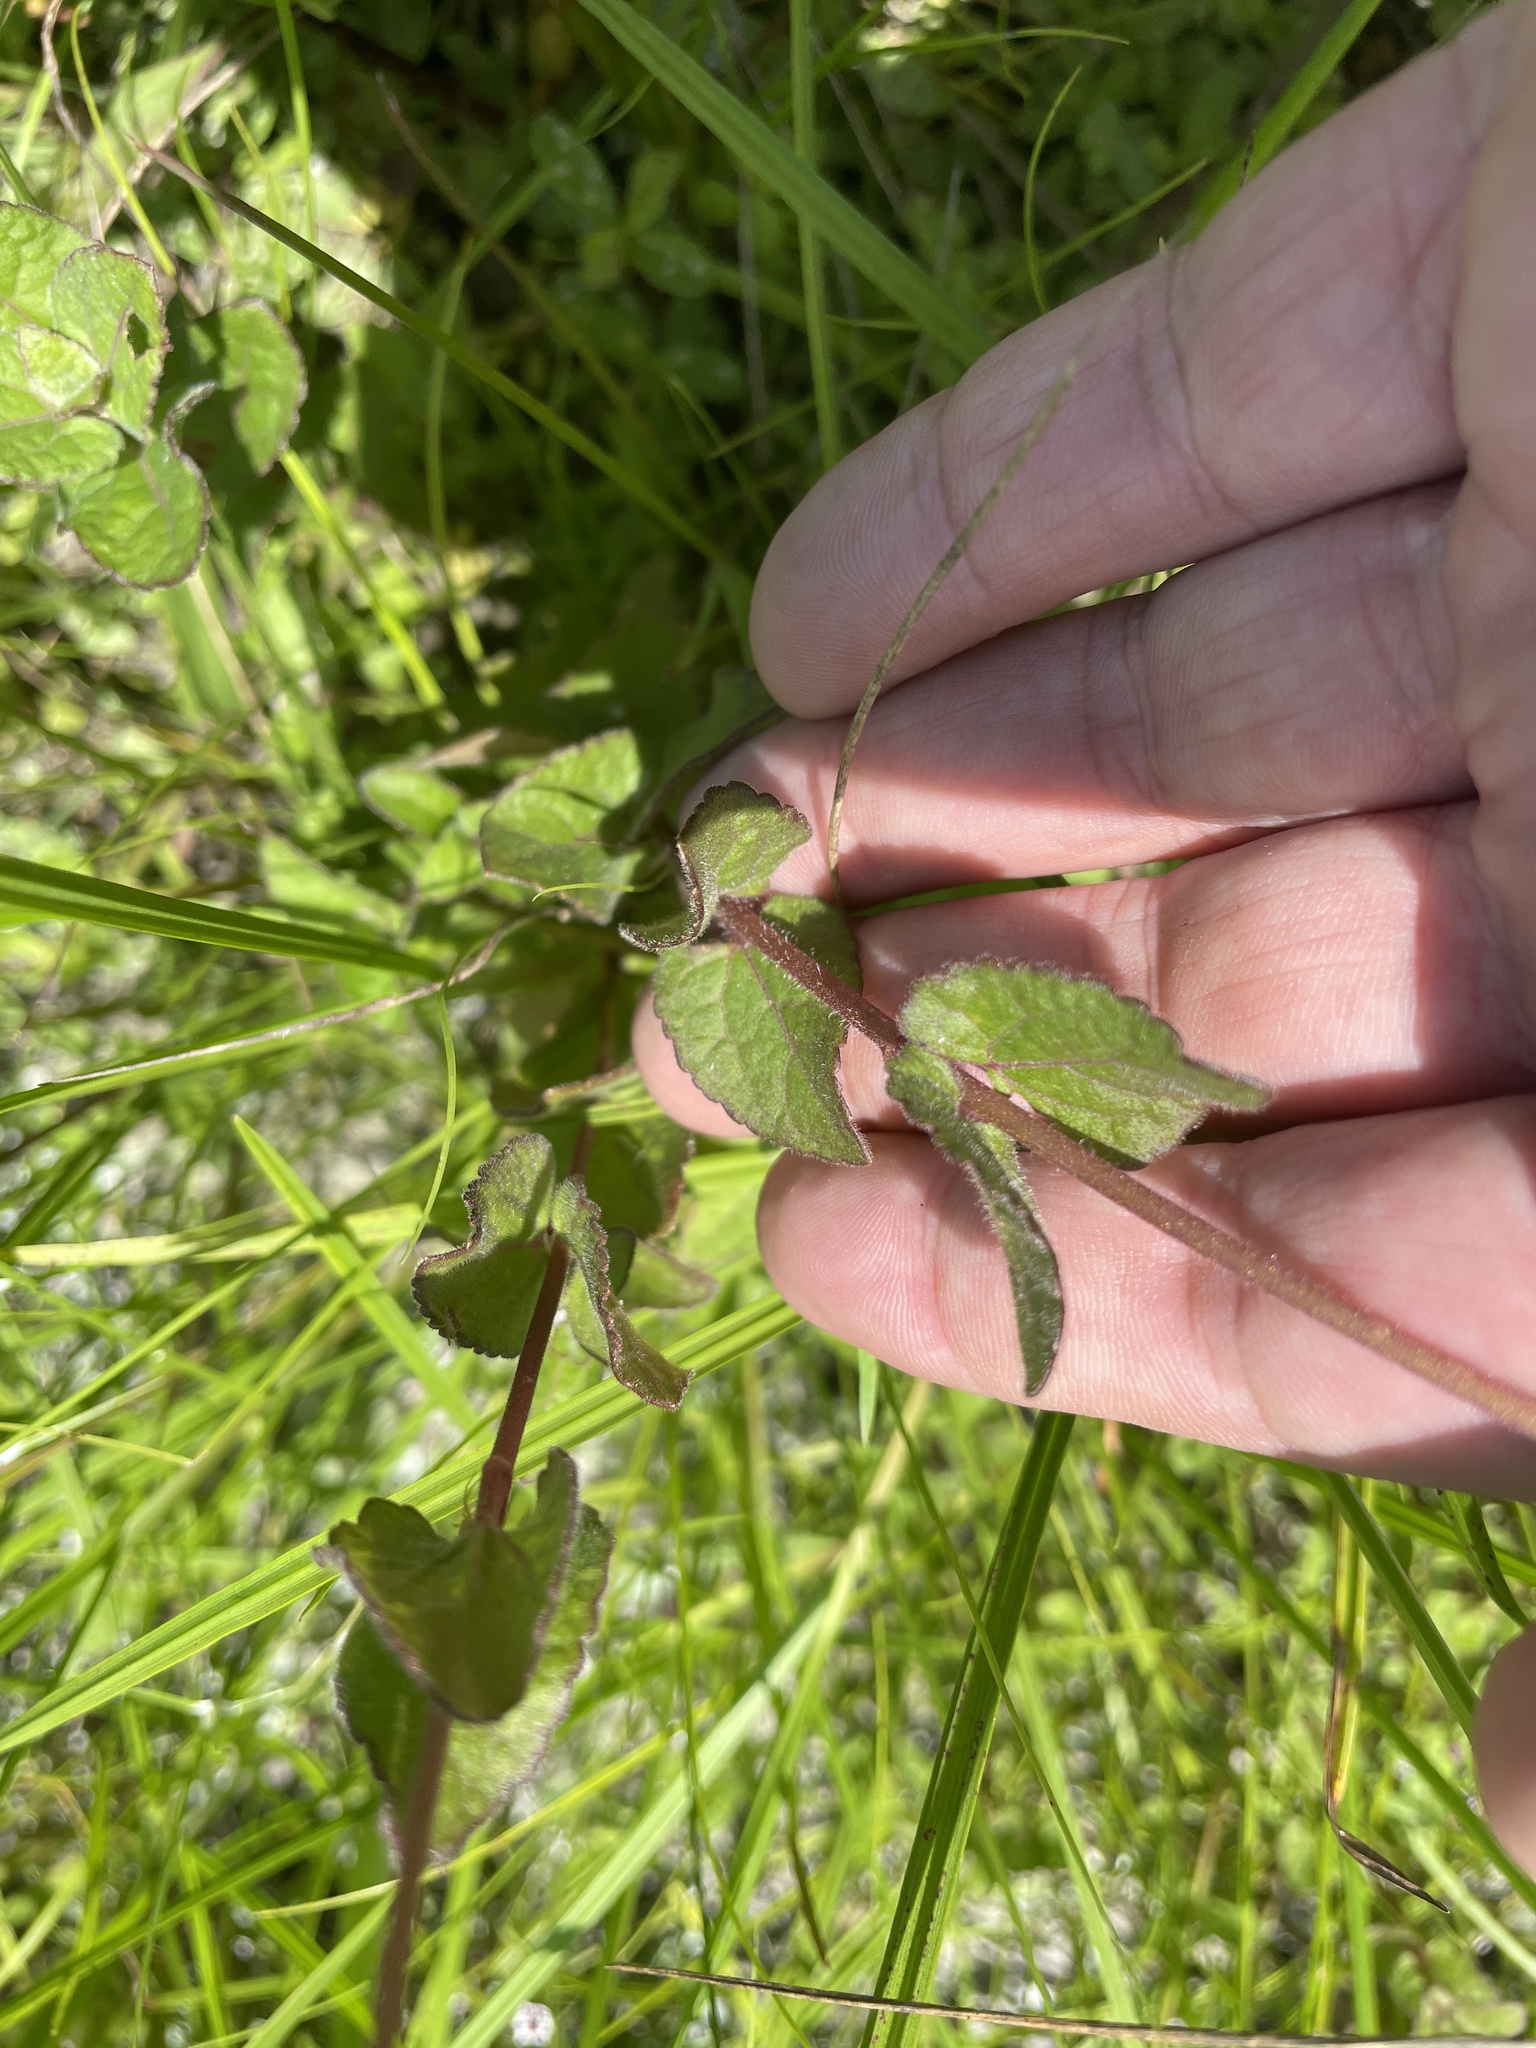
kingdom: Plantae
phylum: Tracheophyta
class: Magnoliopsida
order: Asterales
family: Asteraceae
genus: Conoclinium
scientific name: Conoclinium coelestinum
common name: Blue mistflower
